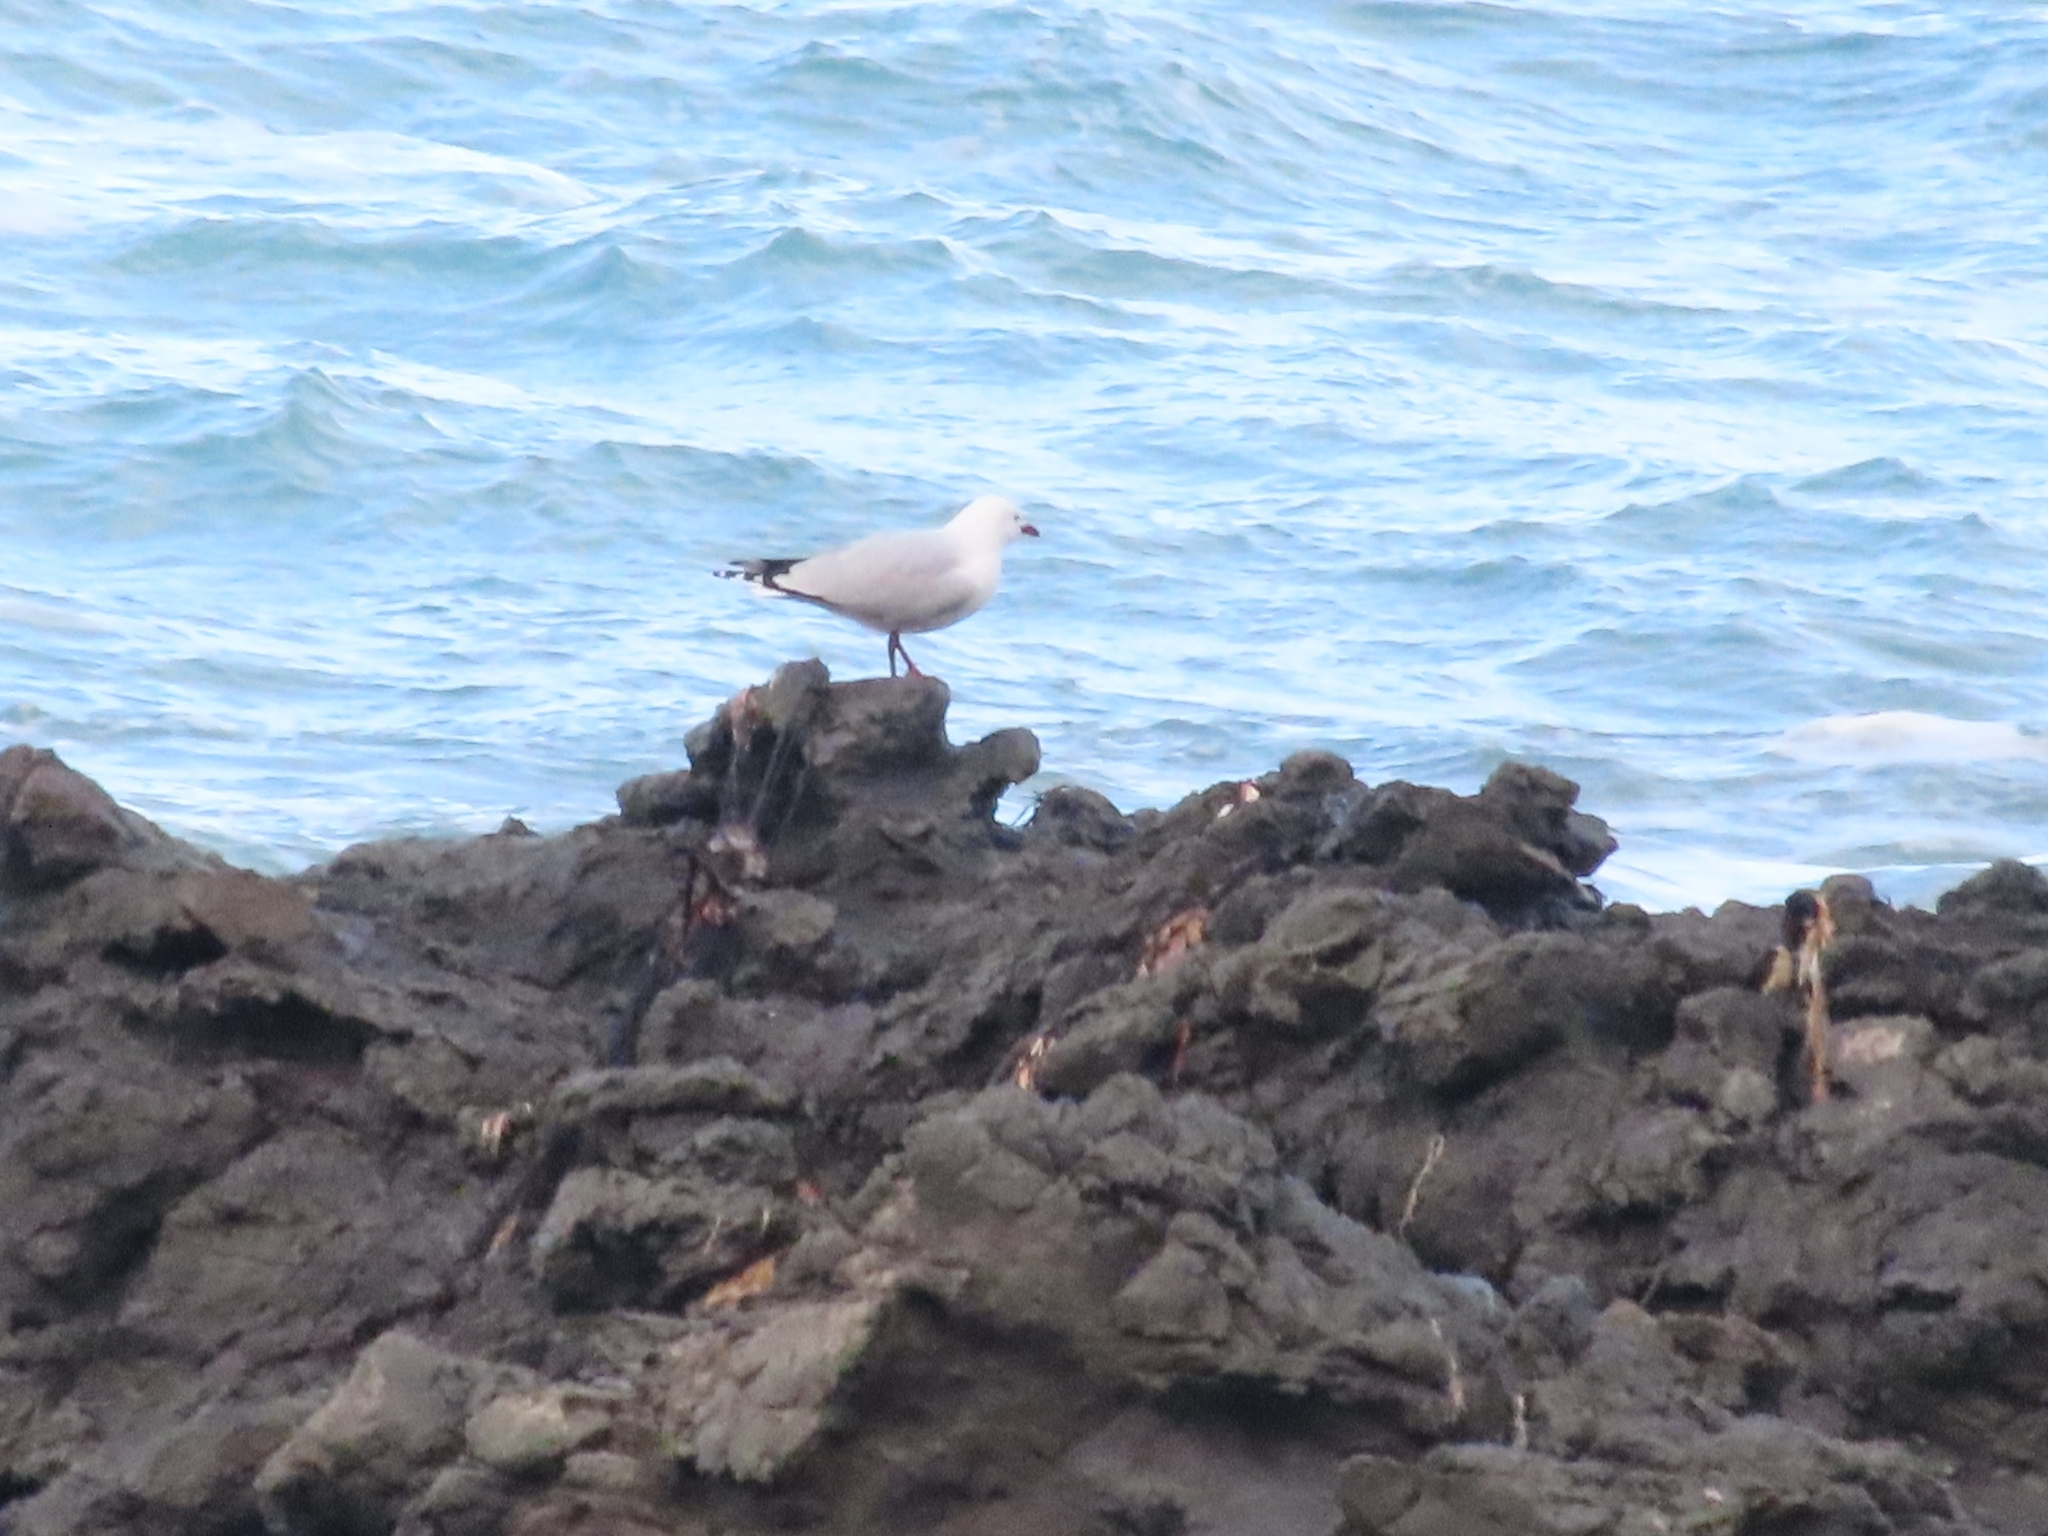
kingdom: Animalia
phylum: Chordata
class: Aves
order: Charadriiformes
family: Laridae
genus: Chroicocephalus
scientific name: Chroicocephalus novaehollandiae
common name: Silver gull
